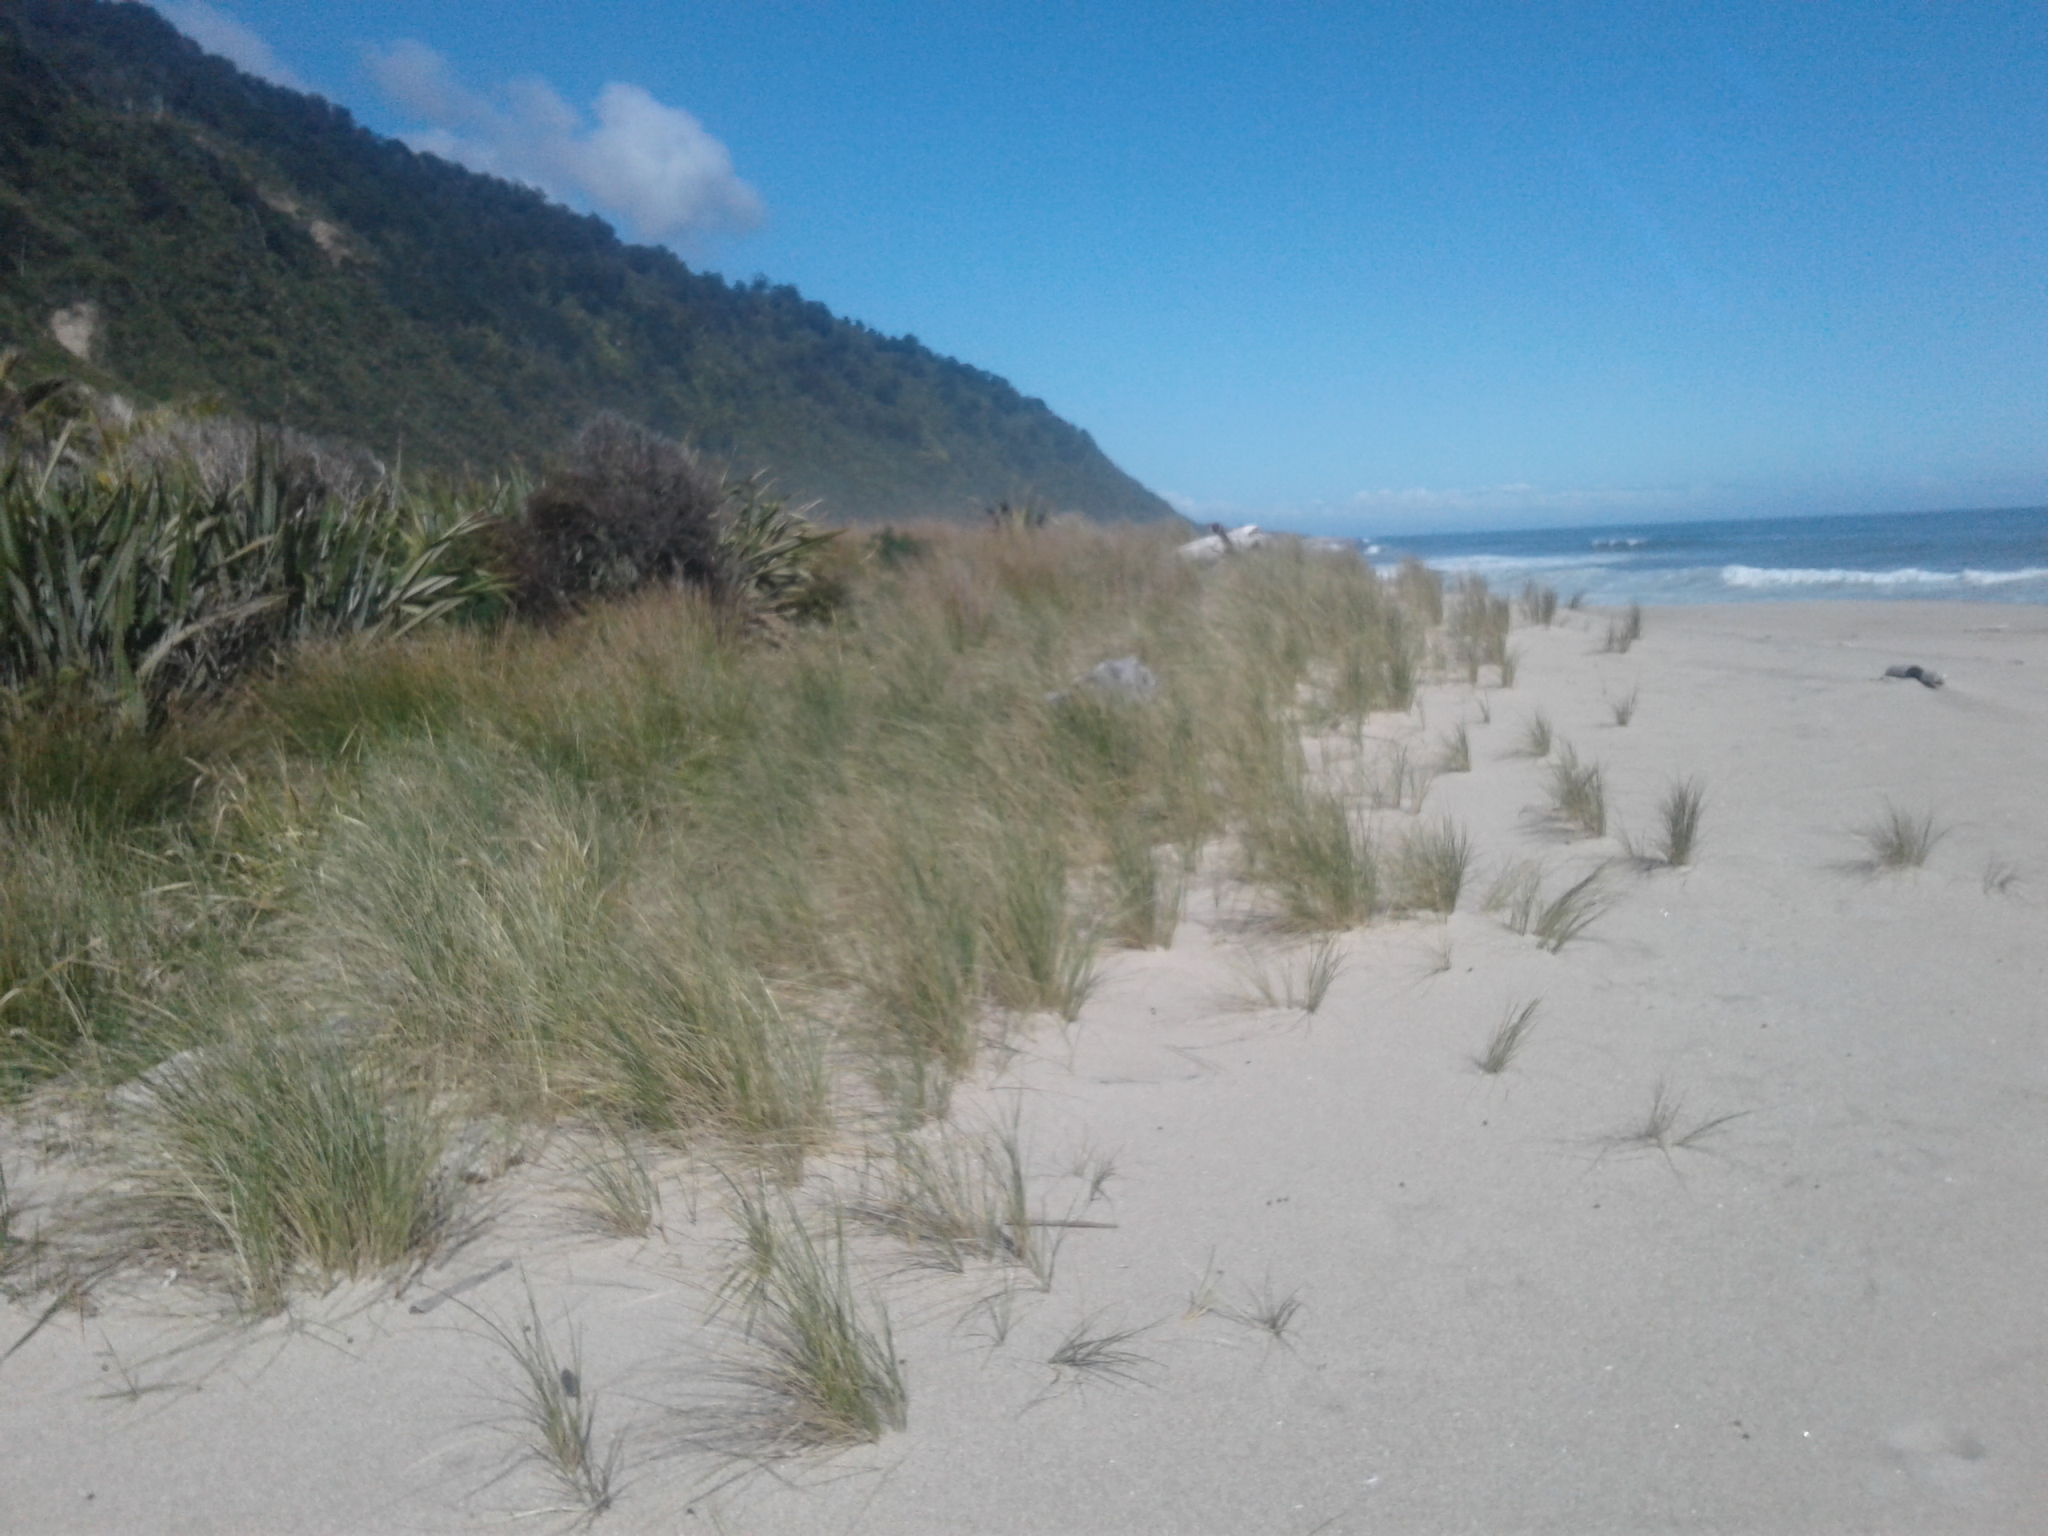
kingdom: Plantae
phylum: Tracheophyta
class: Liliopsida
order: Poales
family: Poaceae
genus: Calamagrostis
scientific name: Calamagrostis arenaria
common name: European beachgrass
